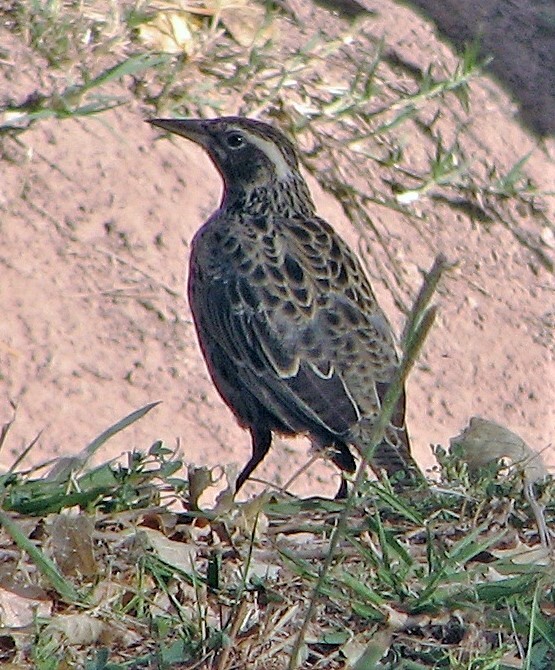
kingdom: Animalia
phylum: Chordata
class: Aves
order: Passeriformes
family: Icteridae
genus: Sturnella
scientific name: Sturnella loyca
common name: Long-tailed meadowlark
